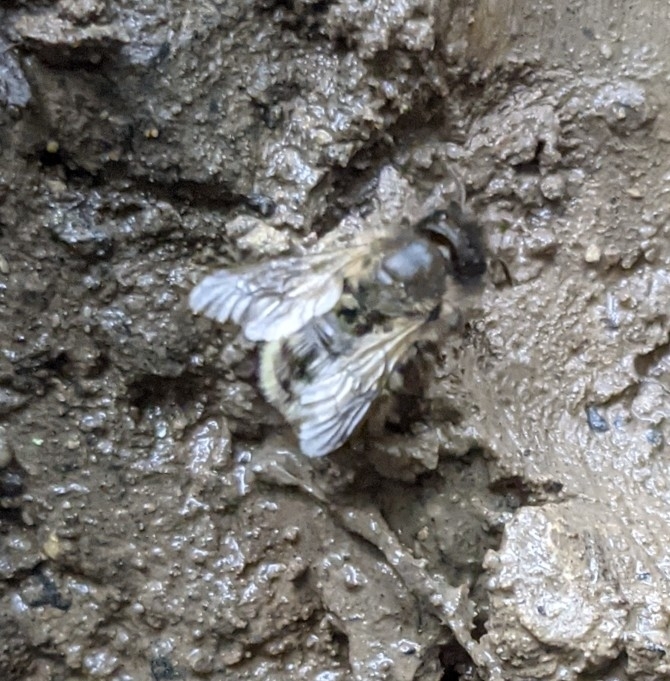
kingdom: Animalia
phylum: Arthropoda
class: Insecta
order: Hymenoptera
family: Megachilidae
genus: Osmia
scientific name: Osmia bicornis
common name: Red mason bee
